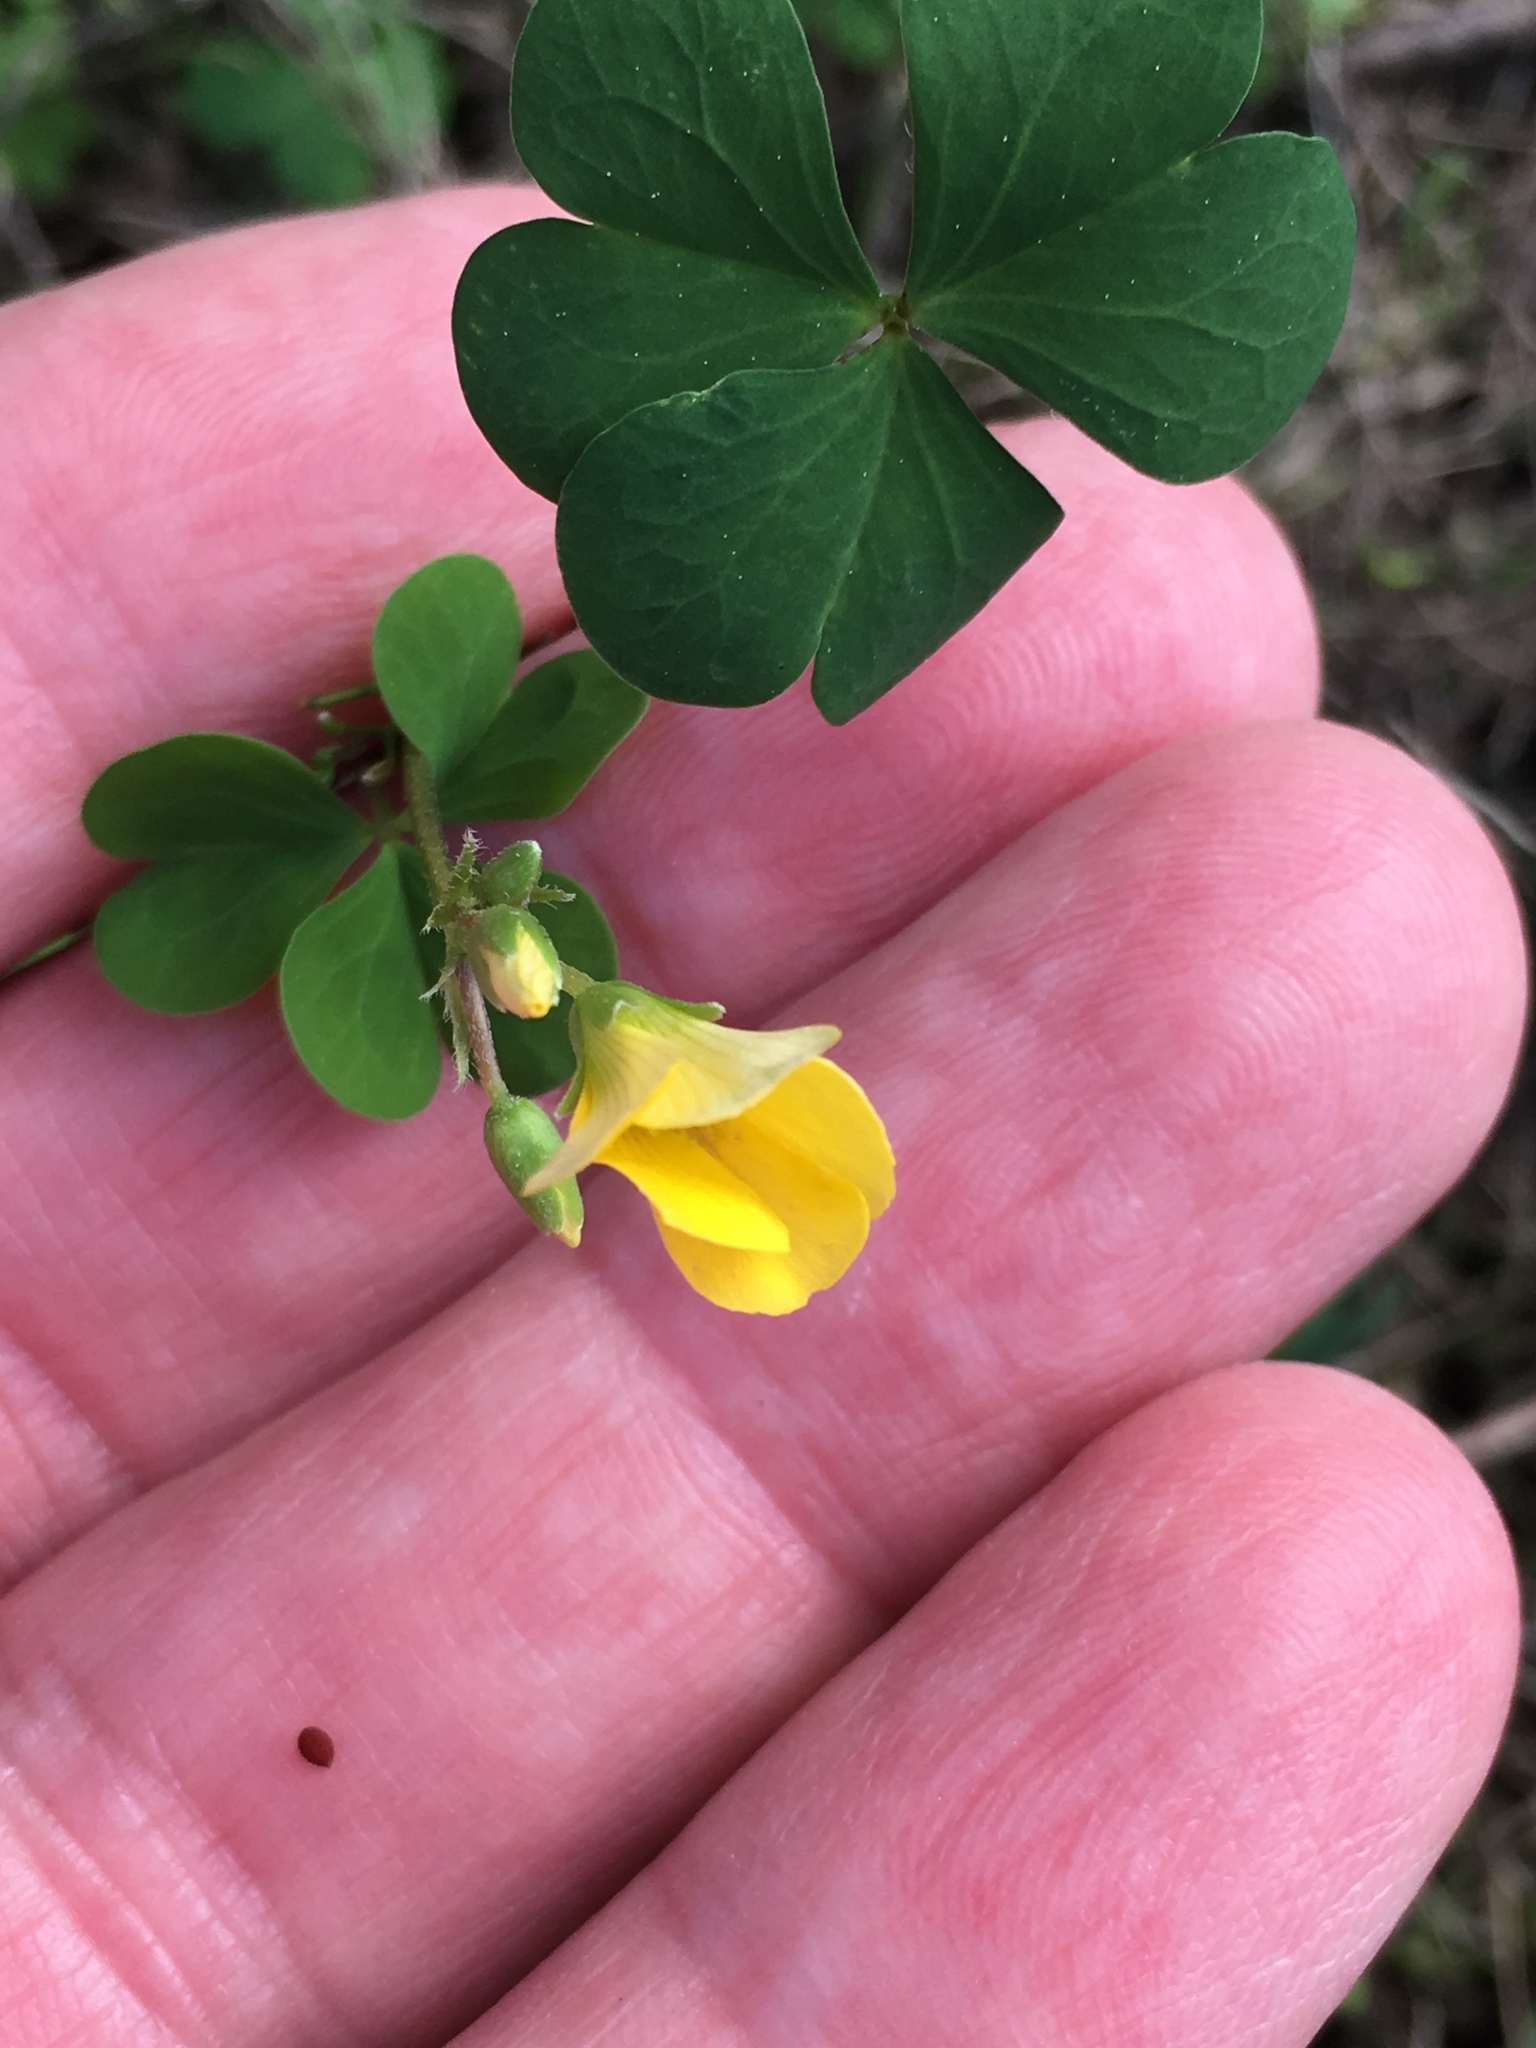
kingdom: Plantae
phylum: Tracheophyta
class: Magnoliopsida
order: Oxalidales
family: Oxalidaceae
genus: Oxalis
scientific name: Oxalis corniculata
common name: Procumbent yellow-sorrel
